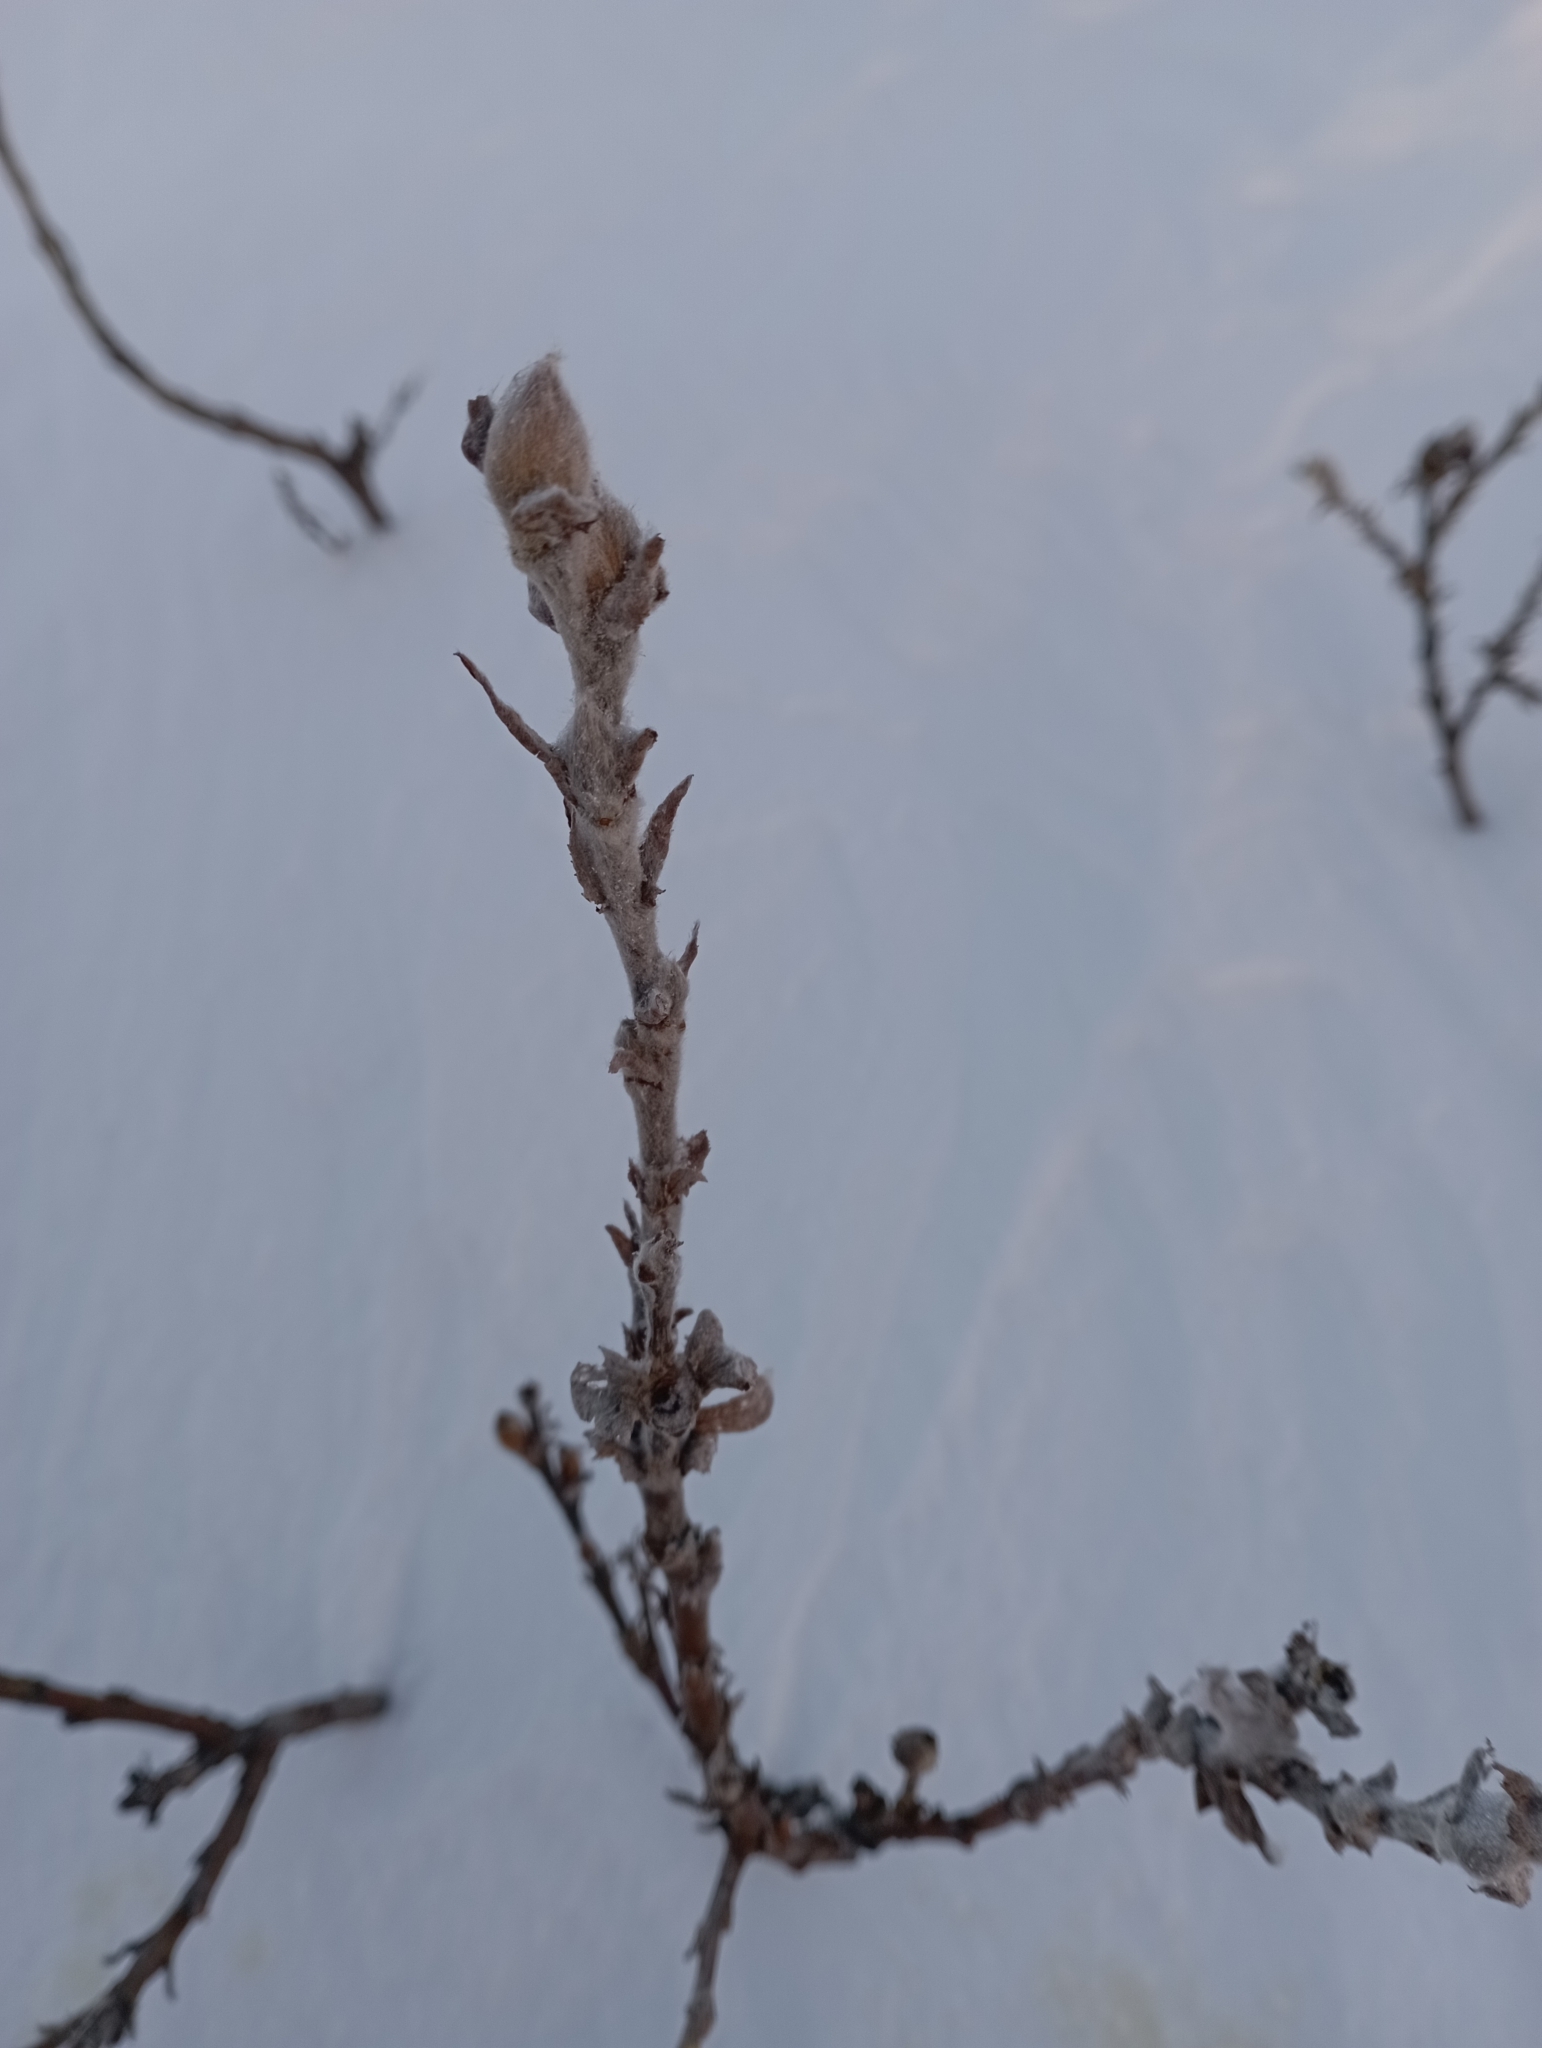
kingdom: Plantae
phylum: Tracheophyta
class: Magnoliopsida
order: Malpighiales
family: Salicaceae
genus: Salix
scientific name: Salix lanata
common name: Woolly willow
